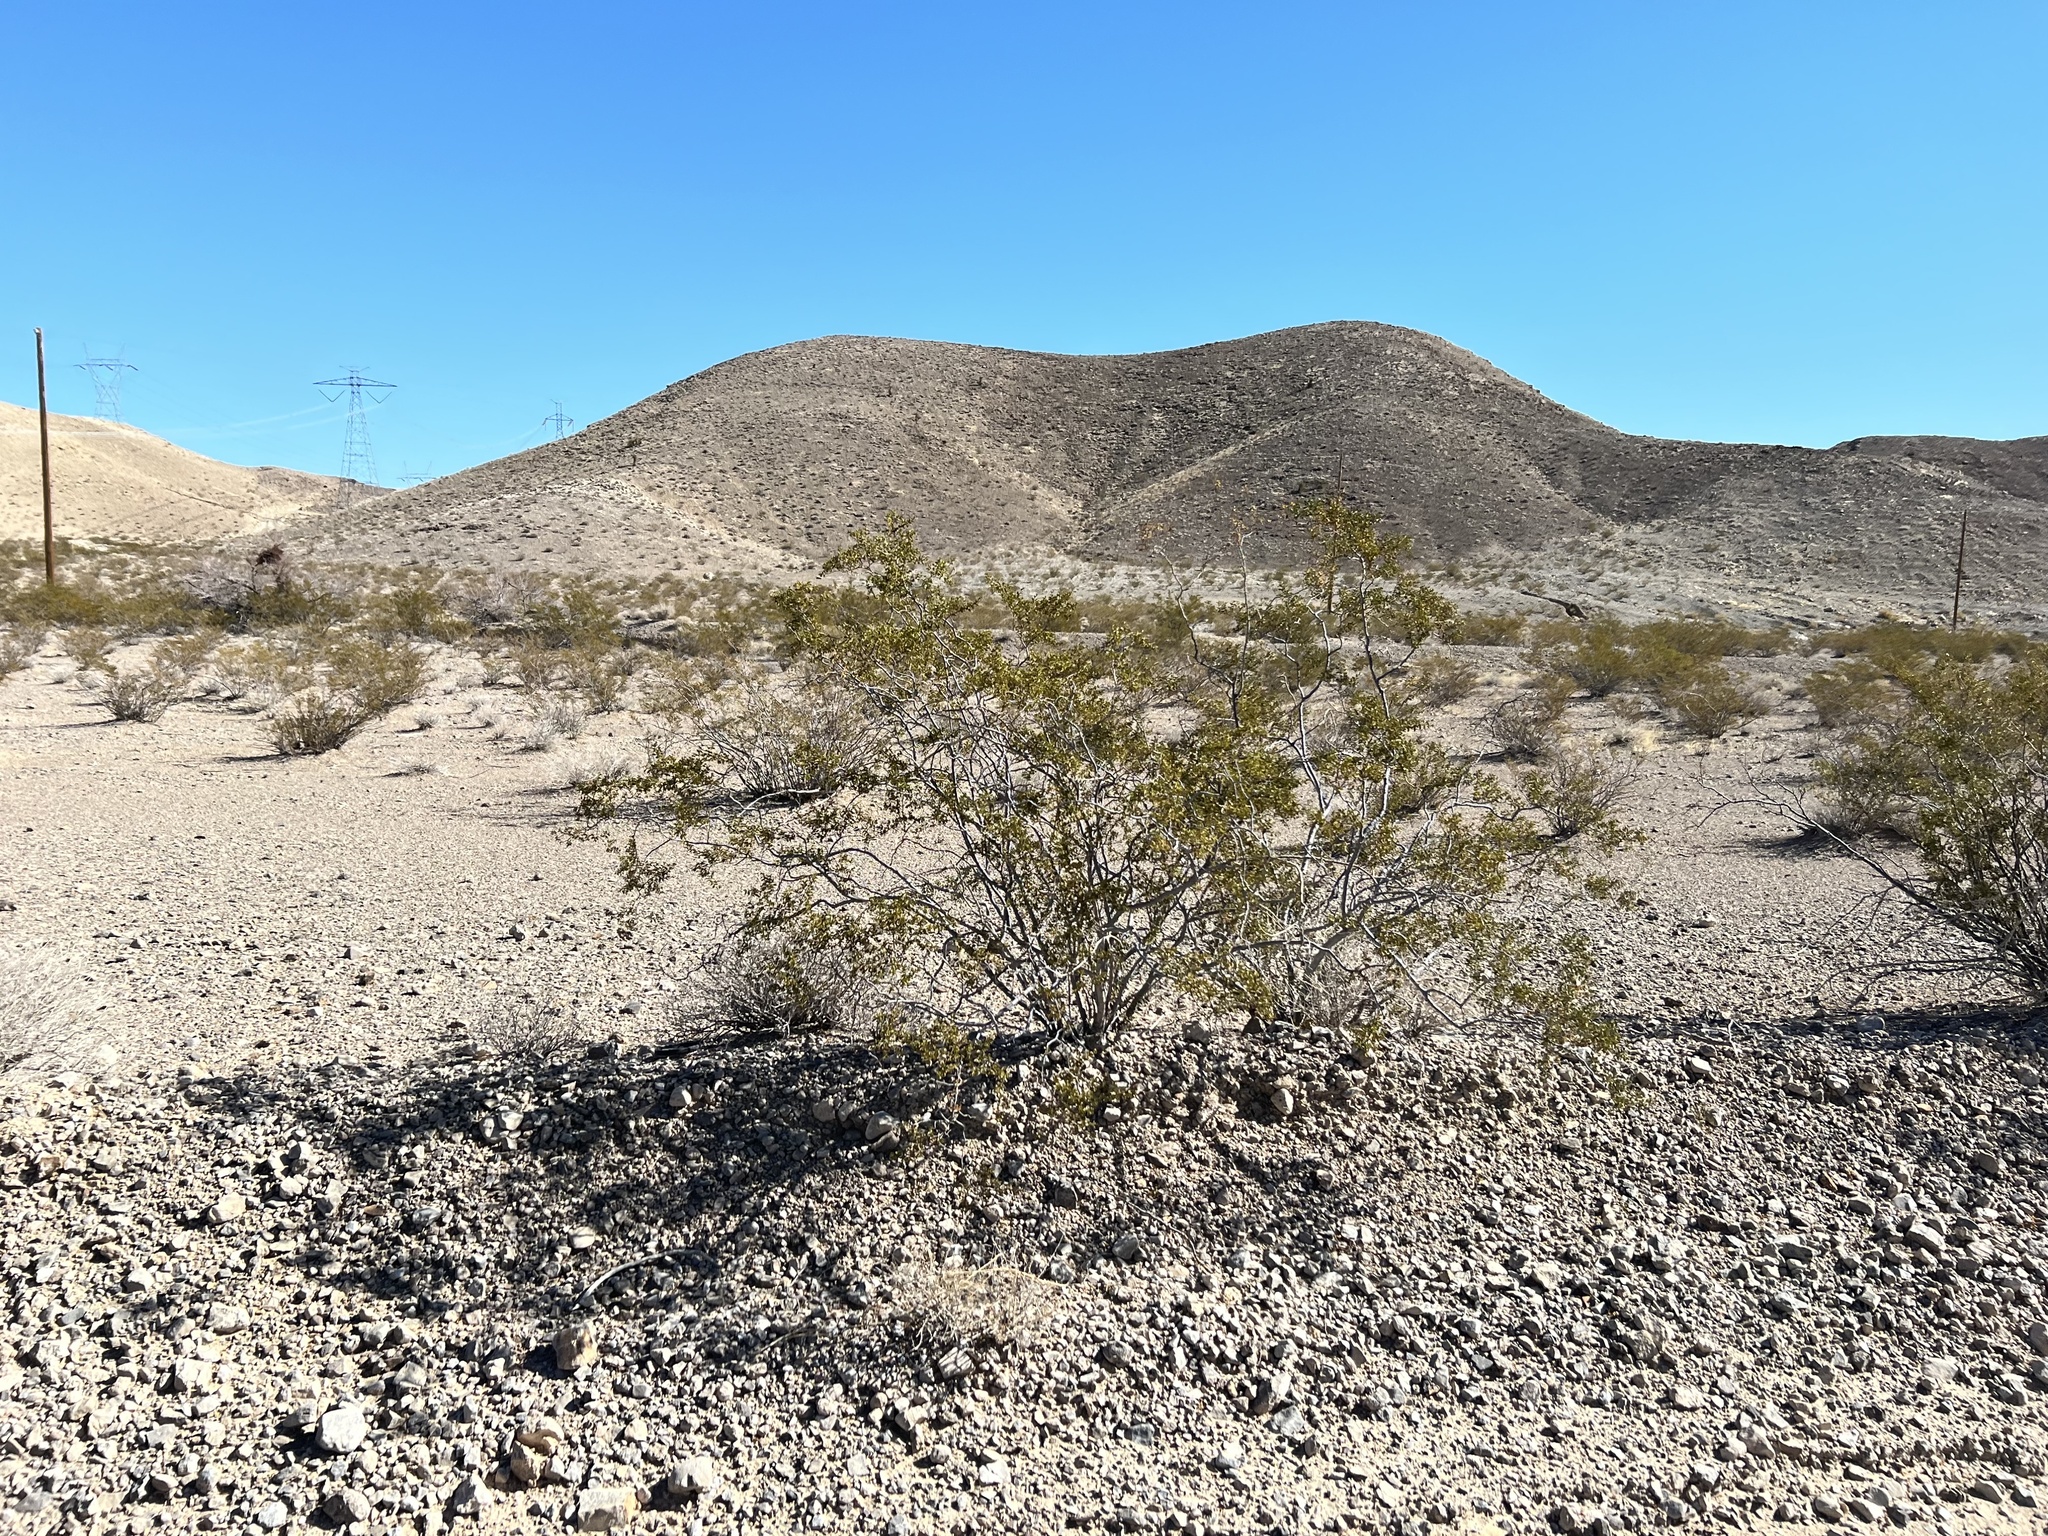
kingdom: Plantae
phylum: Tracheophyta
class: Magnoliopsida
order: Zygophyllales
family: Zygophyllaceae
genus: Larrea
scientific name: Larrea tridentata
